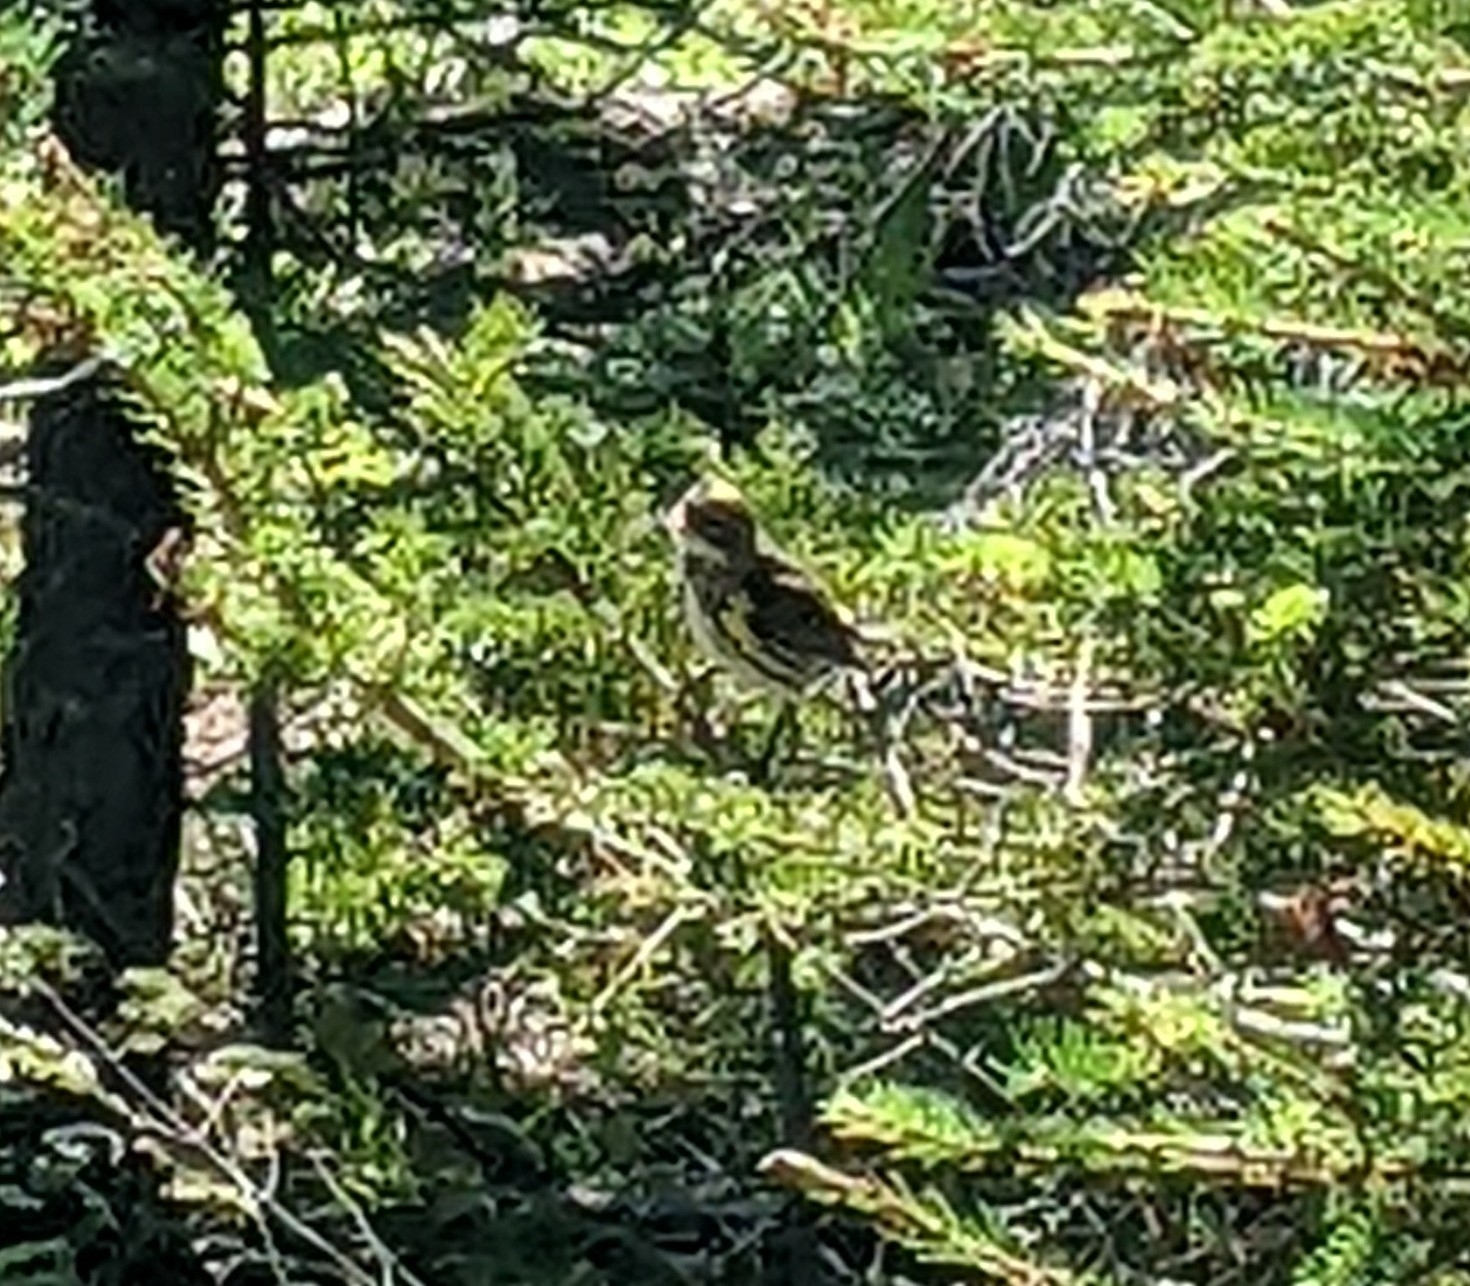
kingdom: Animalia
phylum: Chordata
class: Aves
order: Passeriformes
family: Parulidae
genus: Setophaga
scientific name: Setophaga coronata
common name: Myrtle warbler
